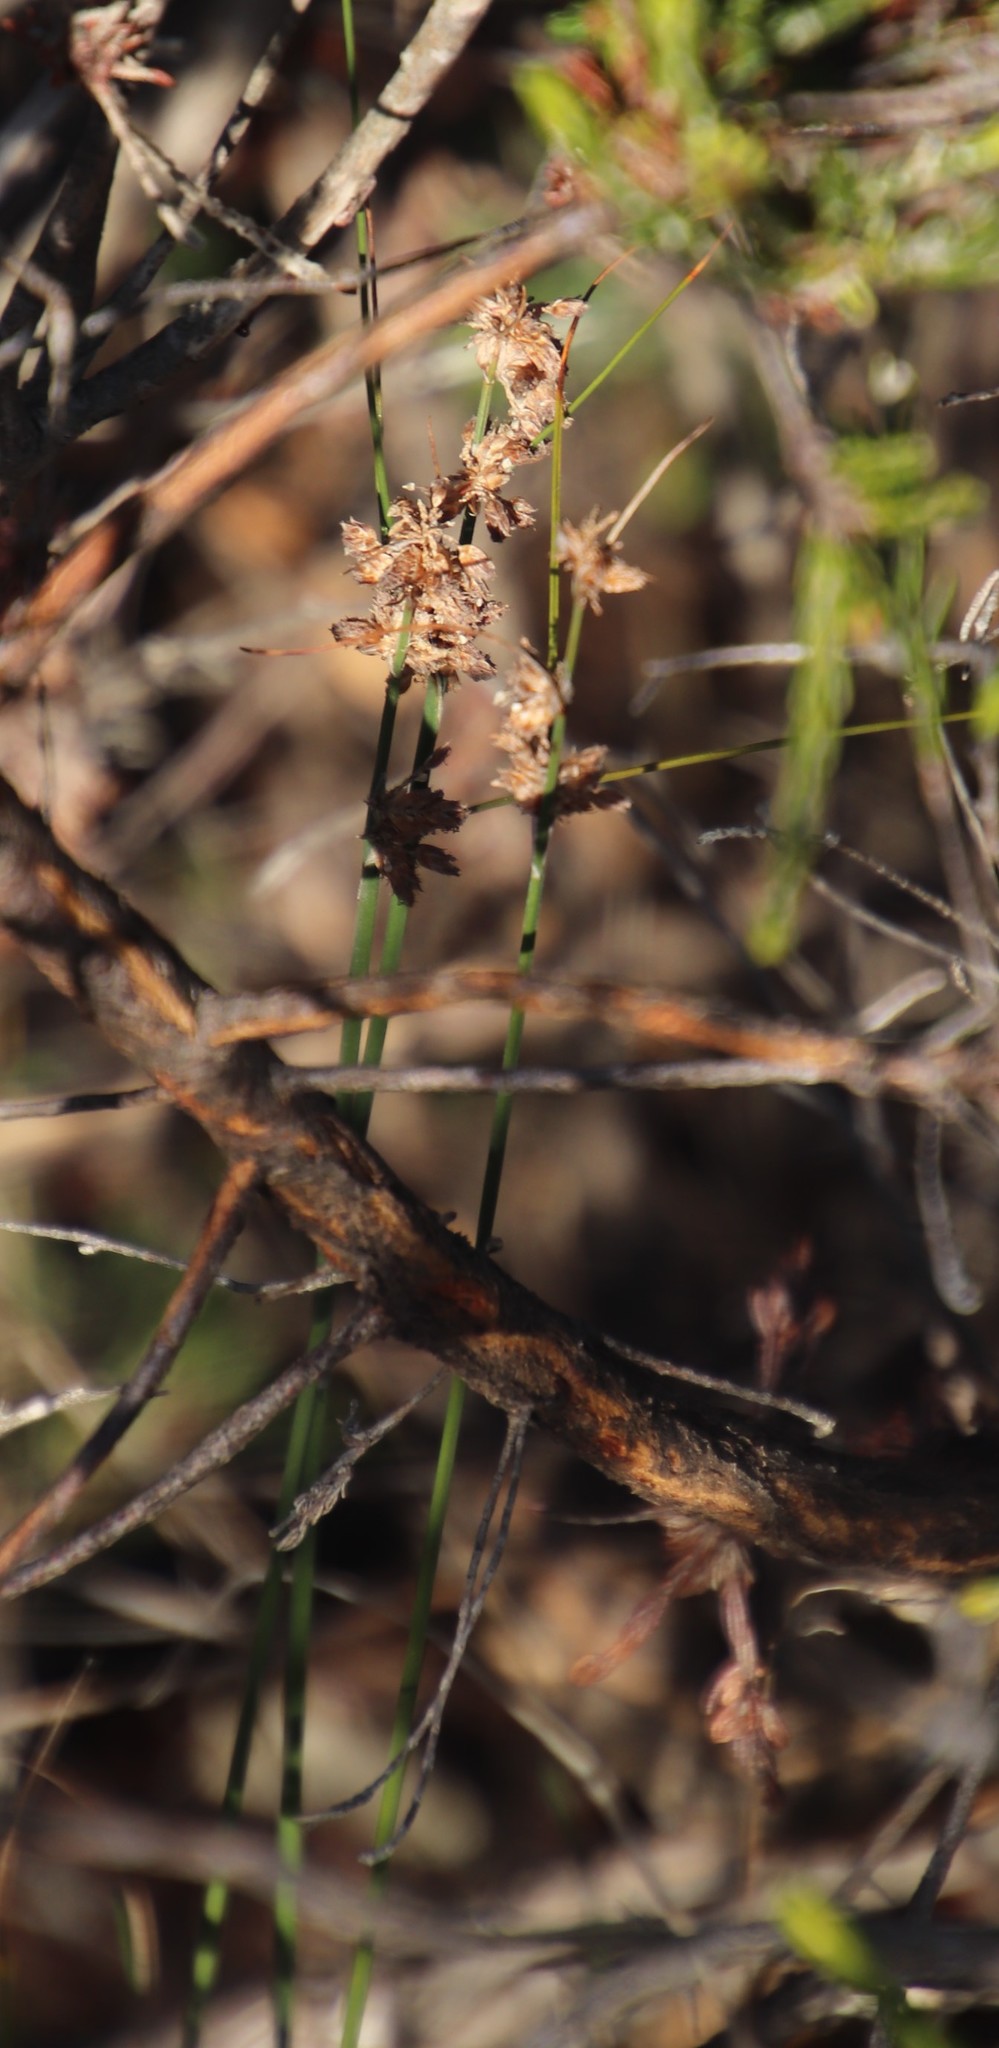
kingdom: Plantae
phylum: Tracheophyta
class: Liliopsida
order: Poales
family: Cyperaceae
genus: Ficinia
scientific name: Ficinia bulbosa
